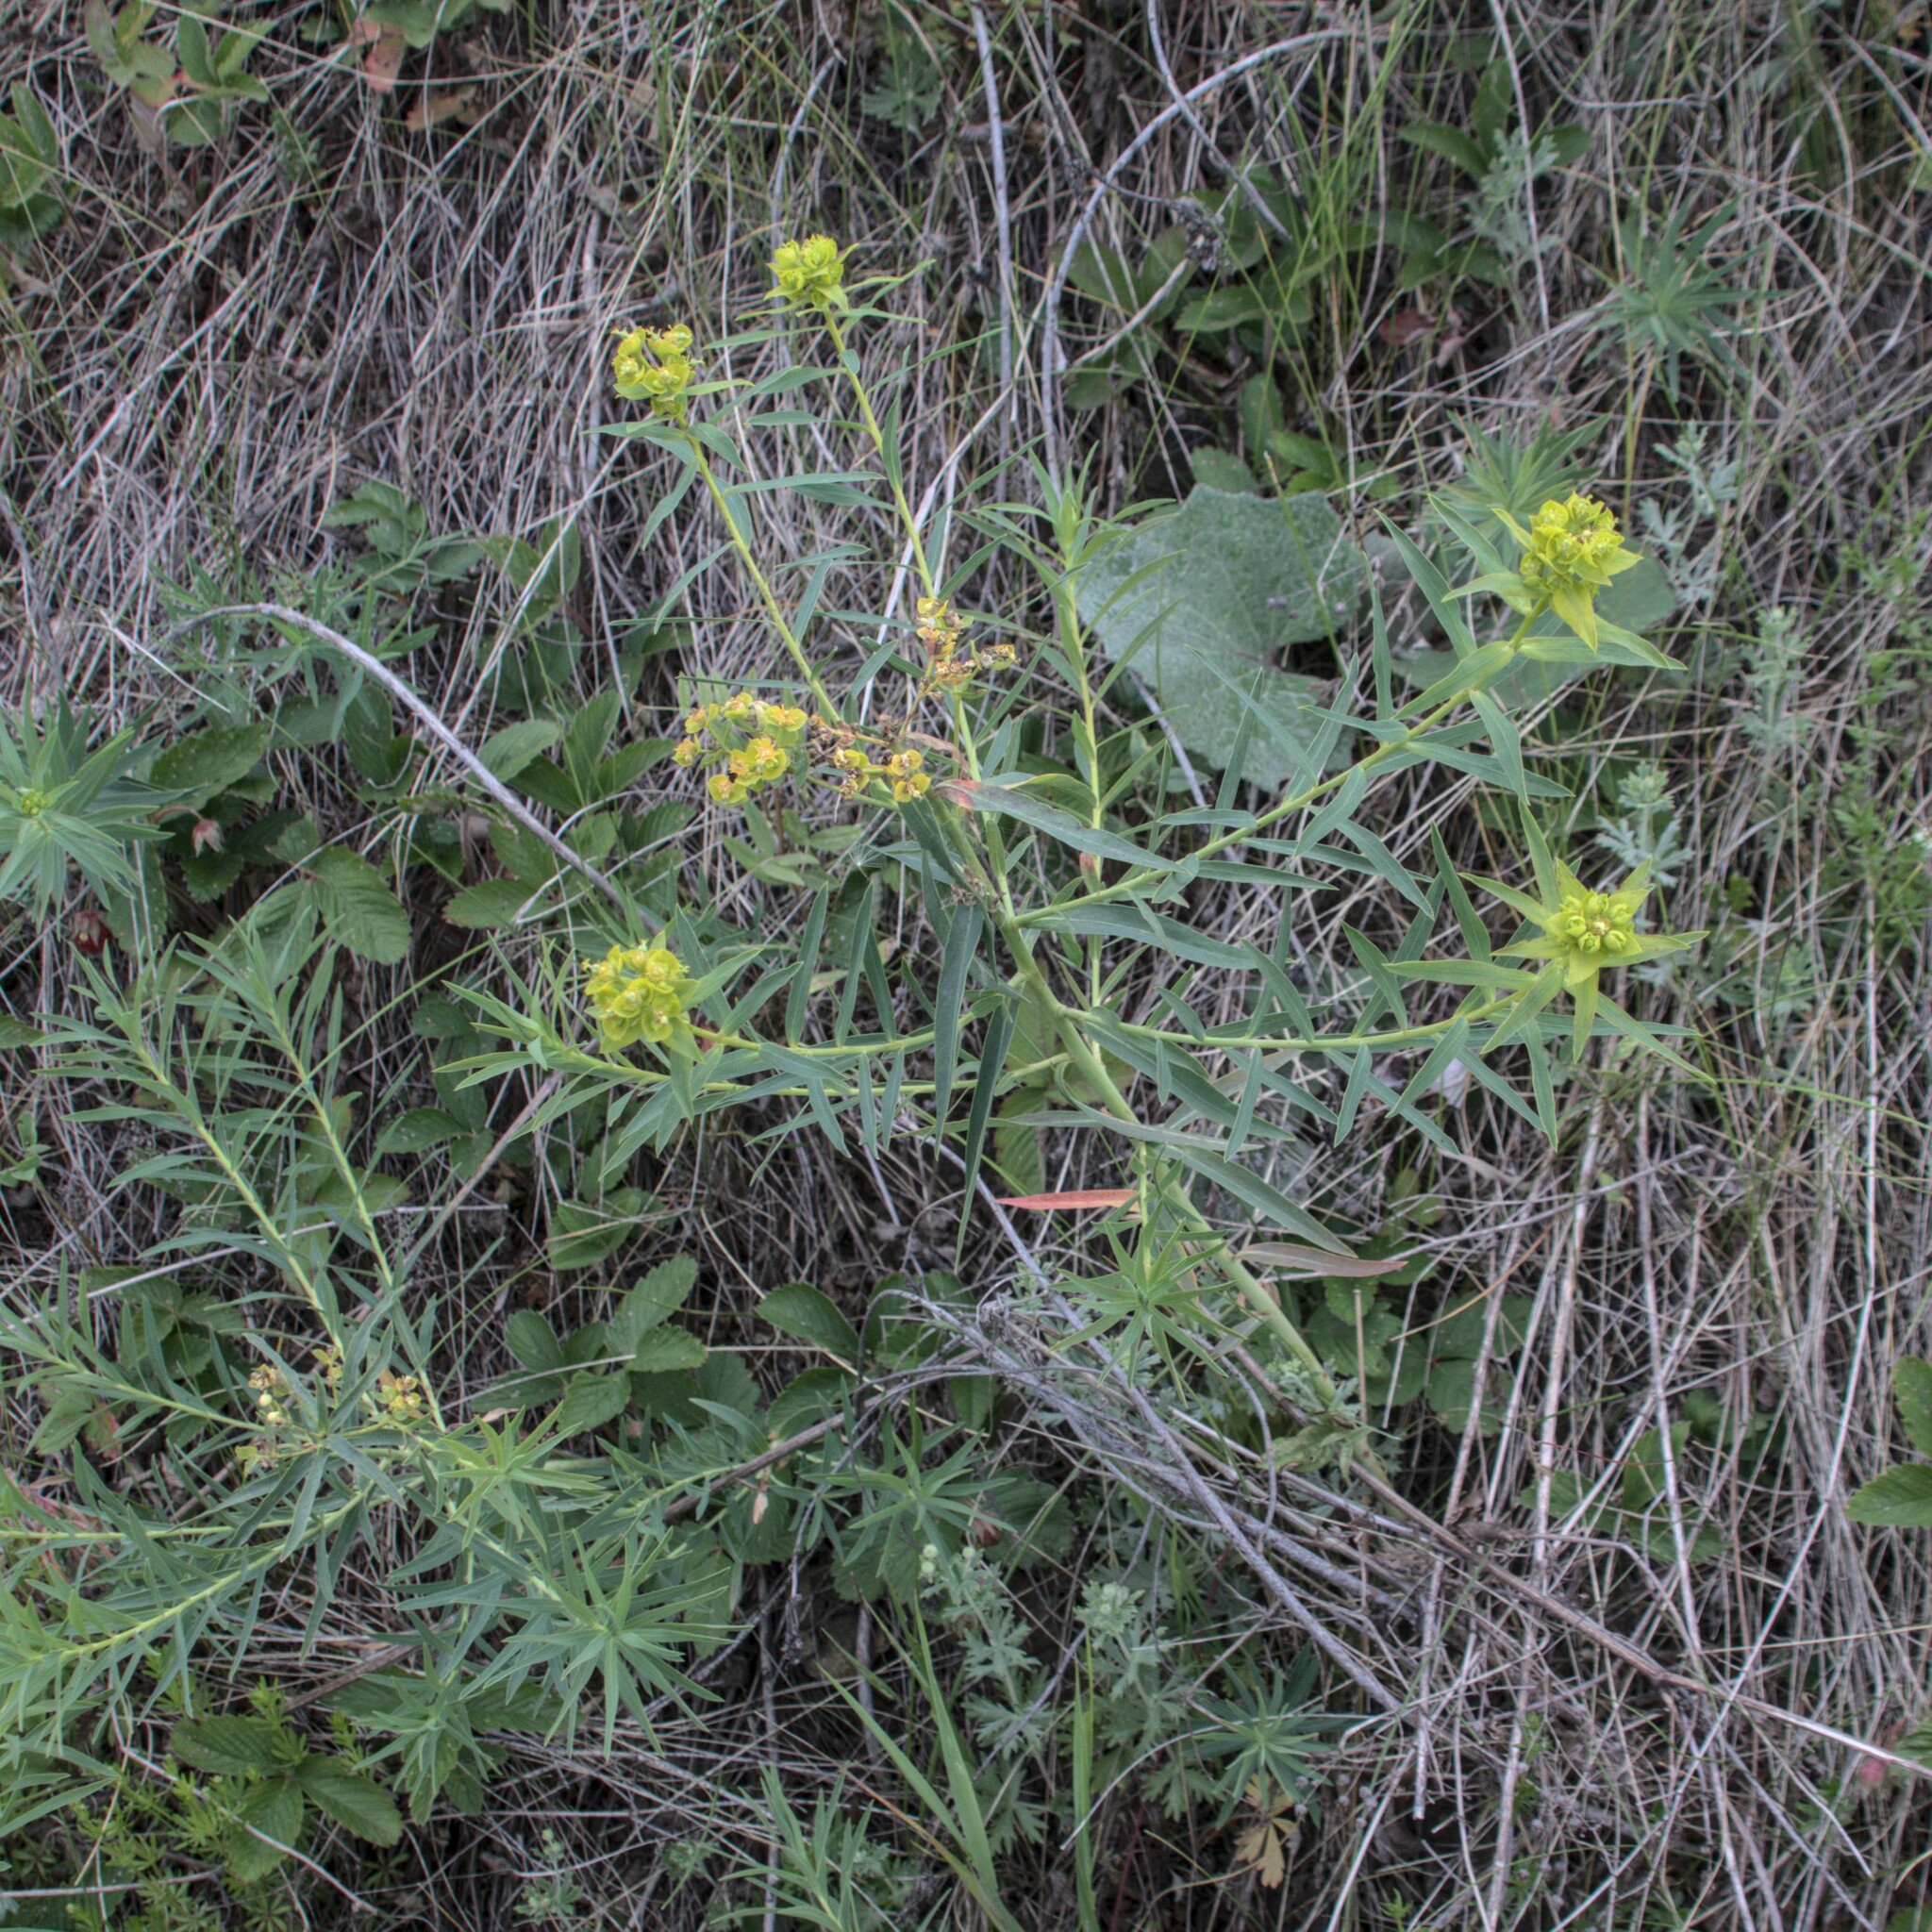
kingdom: Plantae
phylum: Tracheophyta
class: Magnoliopsida
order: Malpighiales
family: Euphorbiaceae
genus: Euphorbia
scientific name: Euphorbia virgata
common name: Leafy spurge
